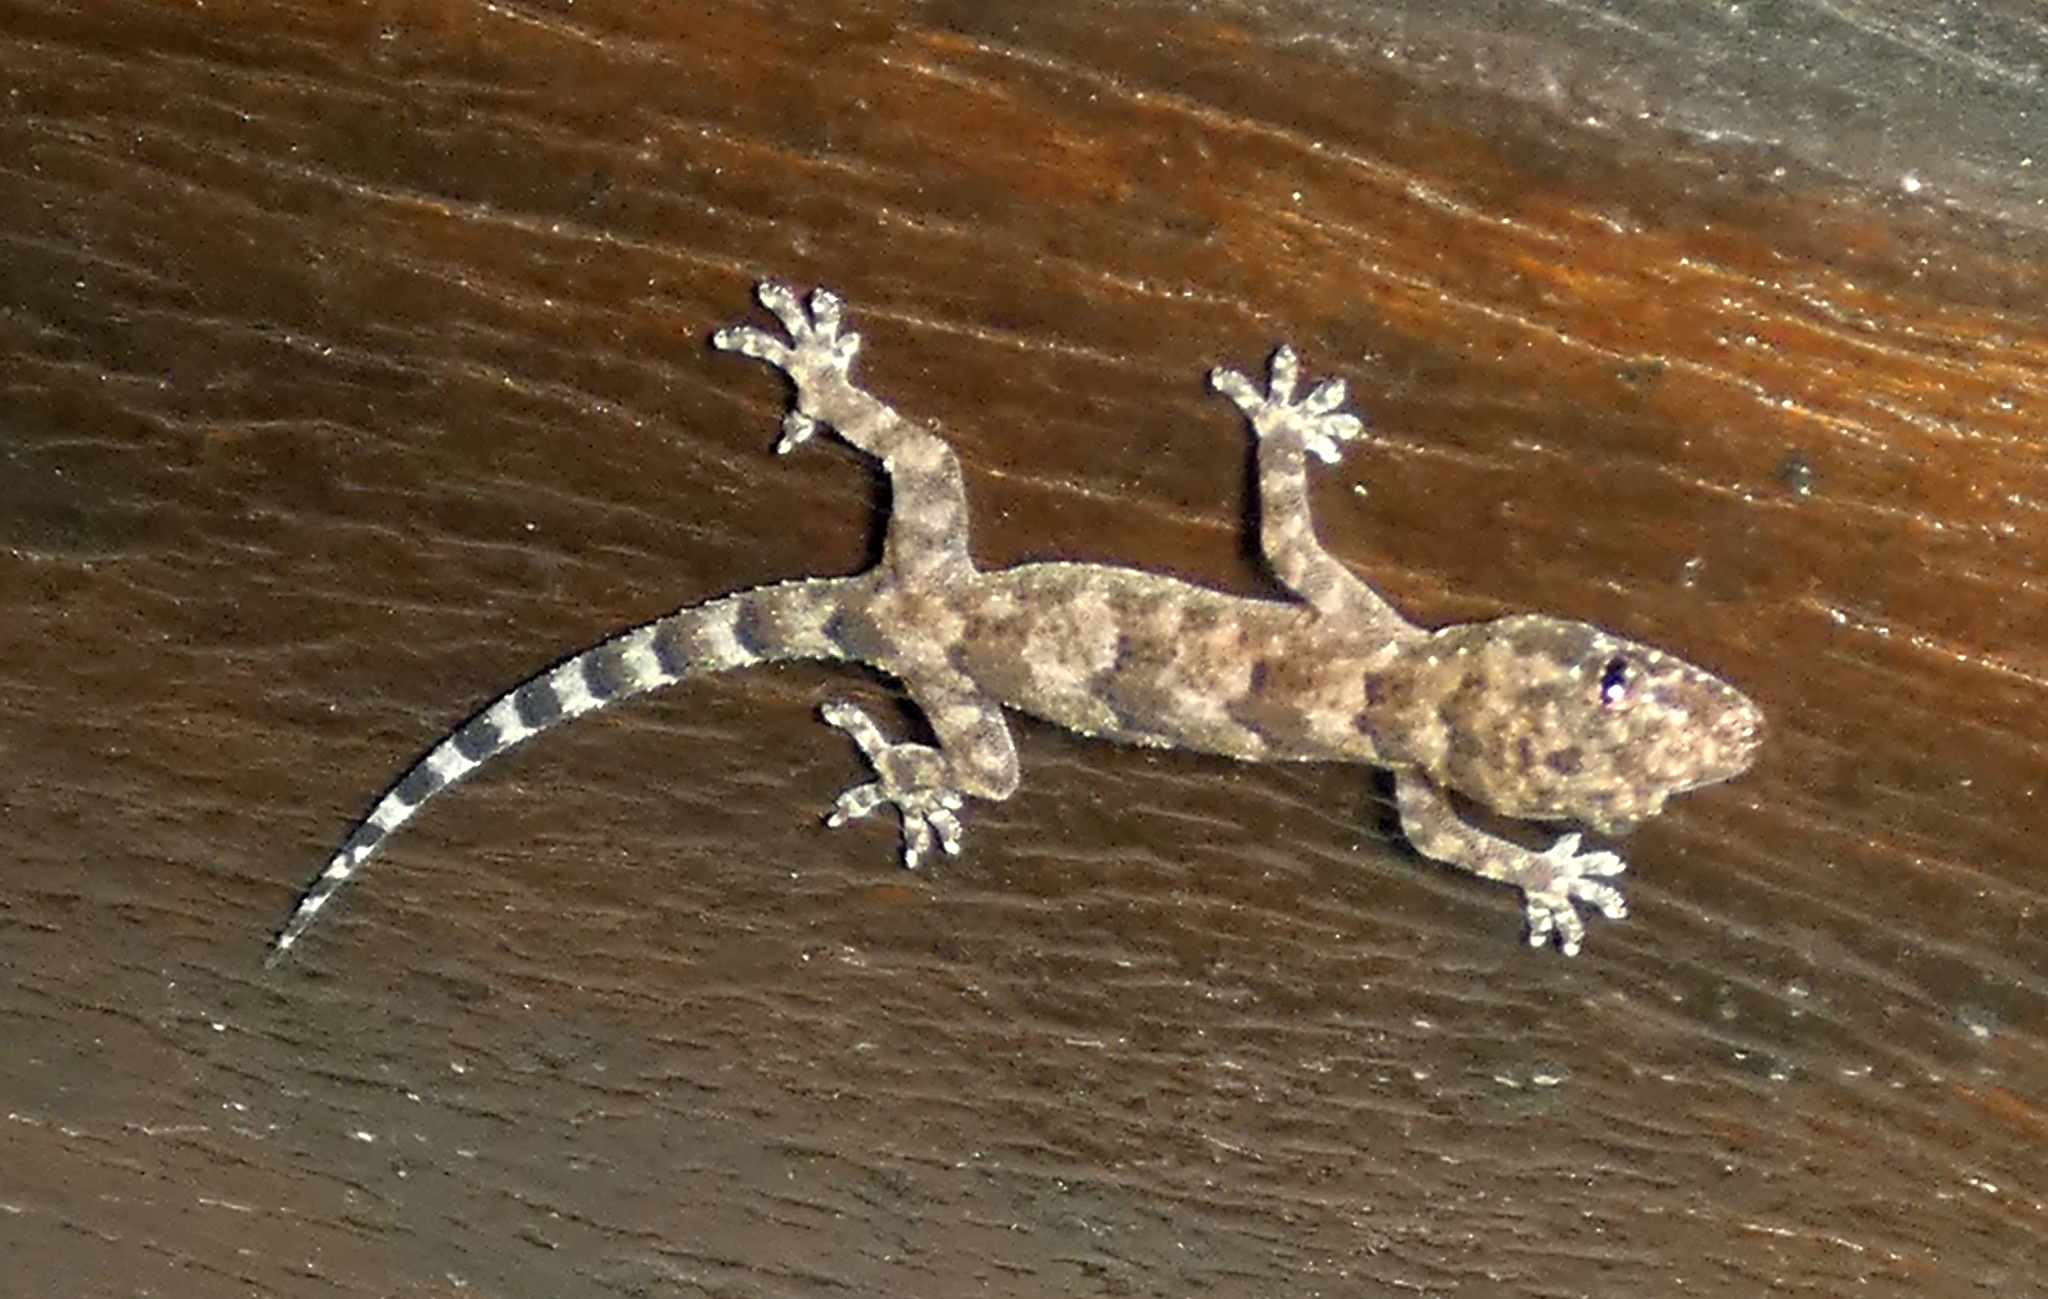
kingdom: Animalia
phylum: Chordata
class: Squamata
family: Gekkonidae
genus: Hemidactylus
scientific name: Hemidactylus mabouia
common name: House gecko
